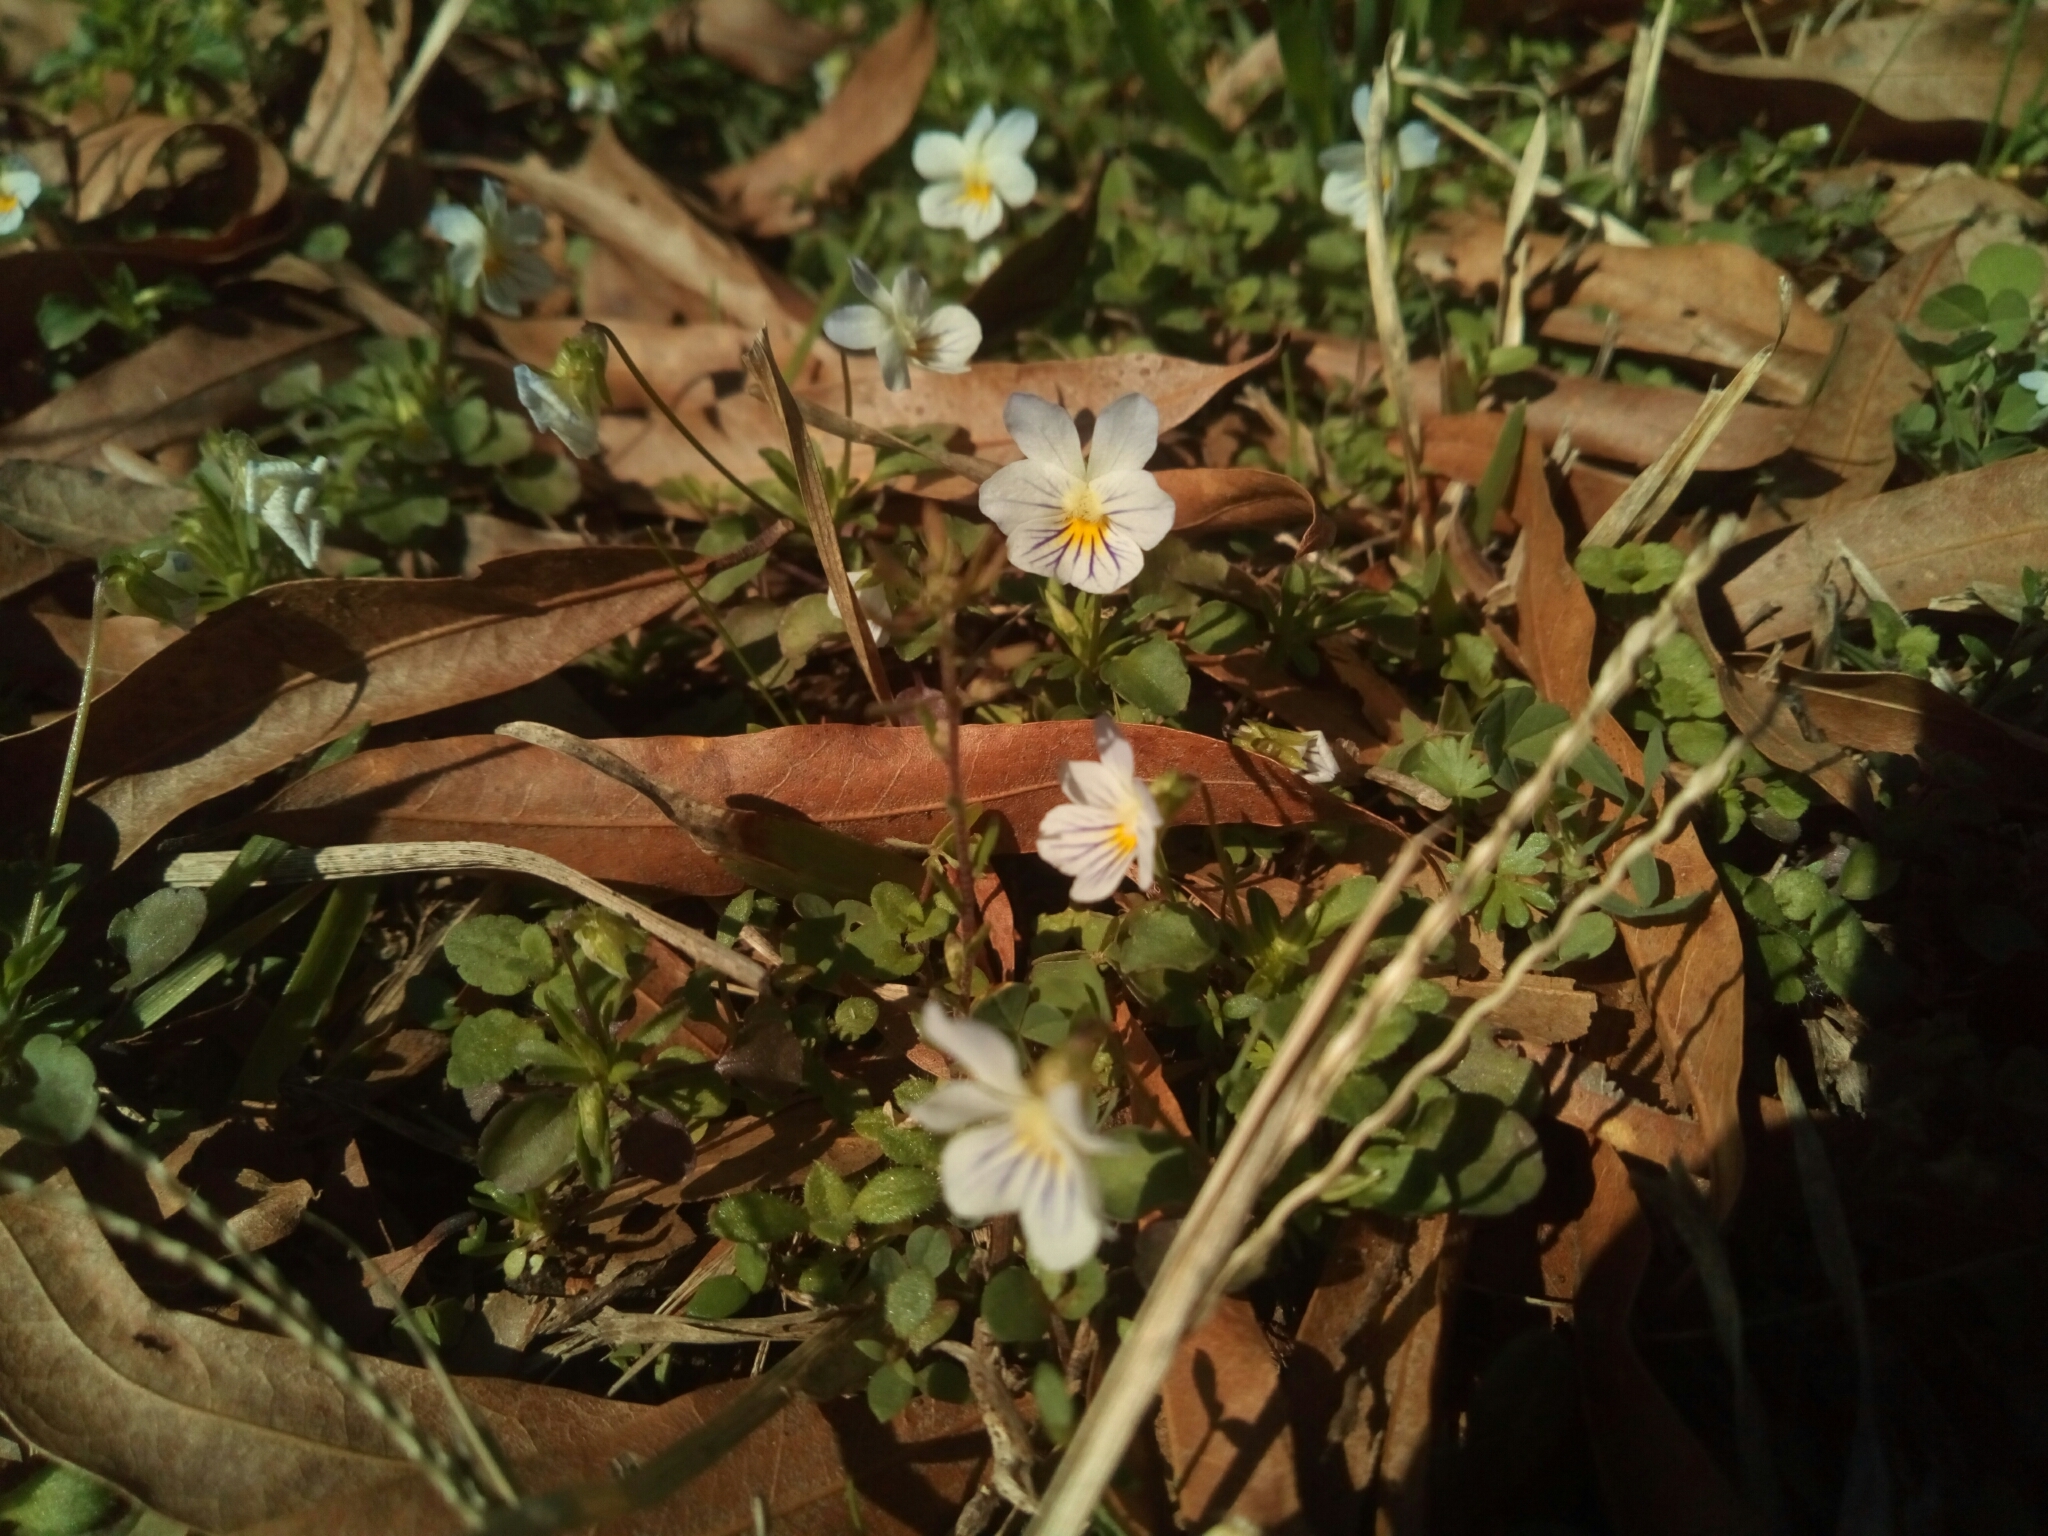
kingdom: Plantae
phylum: Tracheophyta
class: Magnoliopsida
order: Malpighiales
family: Violaceae
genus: Viola
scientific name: Viola rafinesquei
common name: American field pansy
